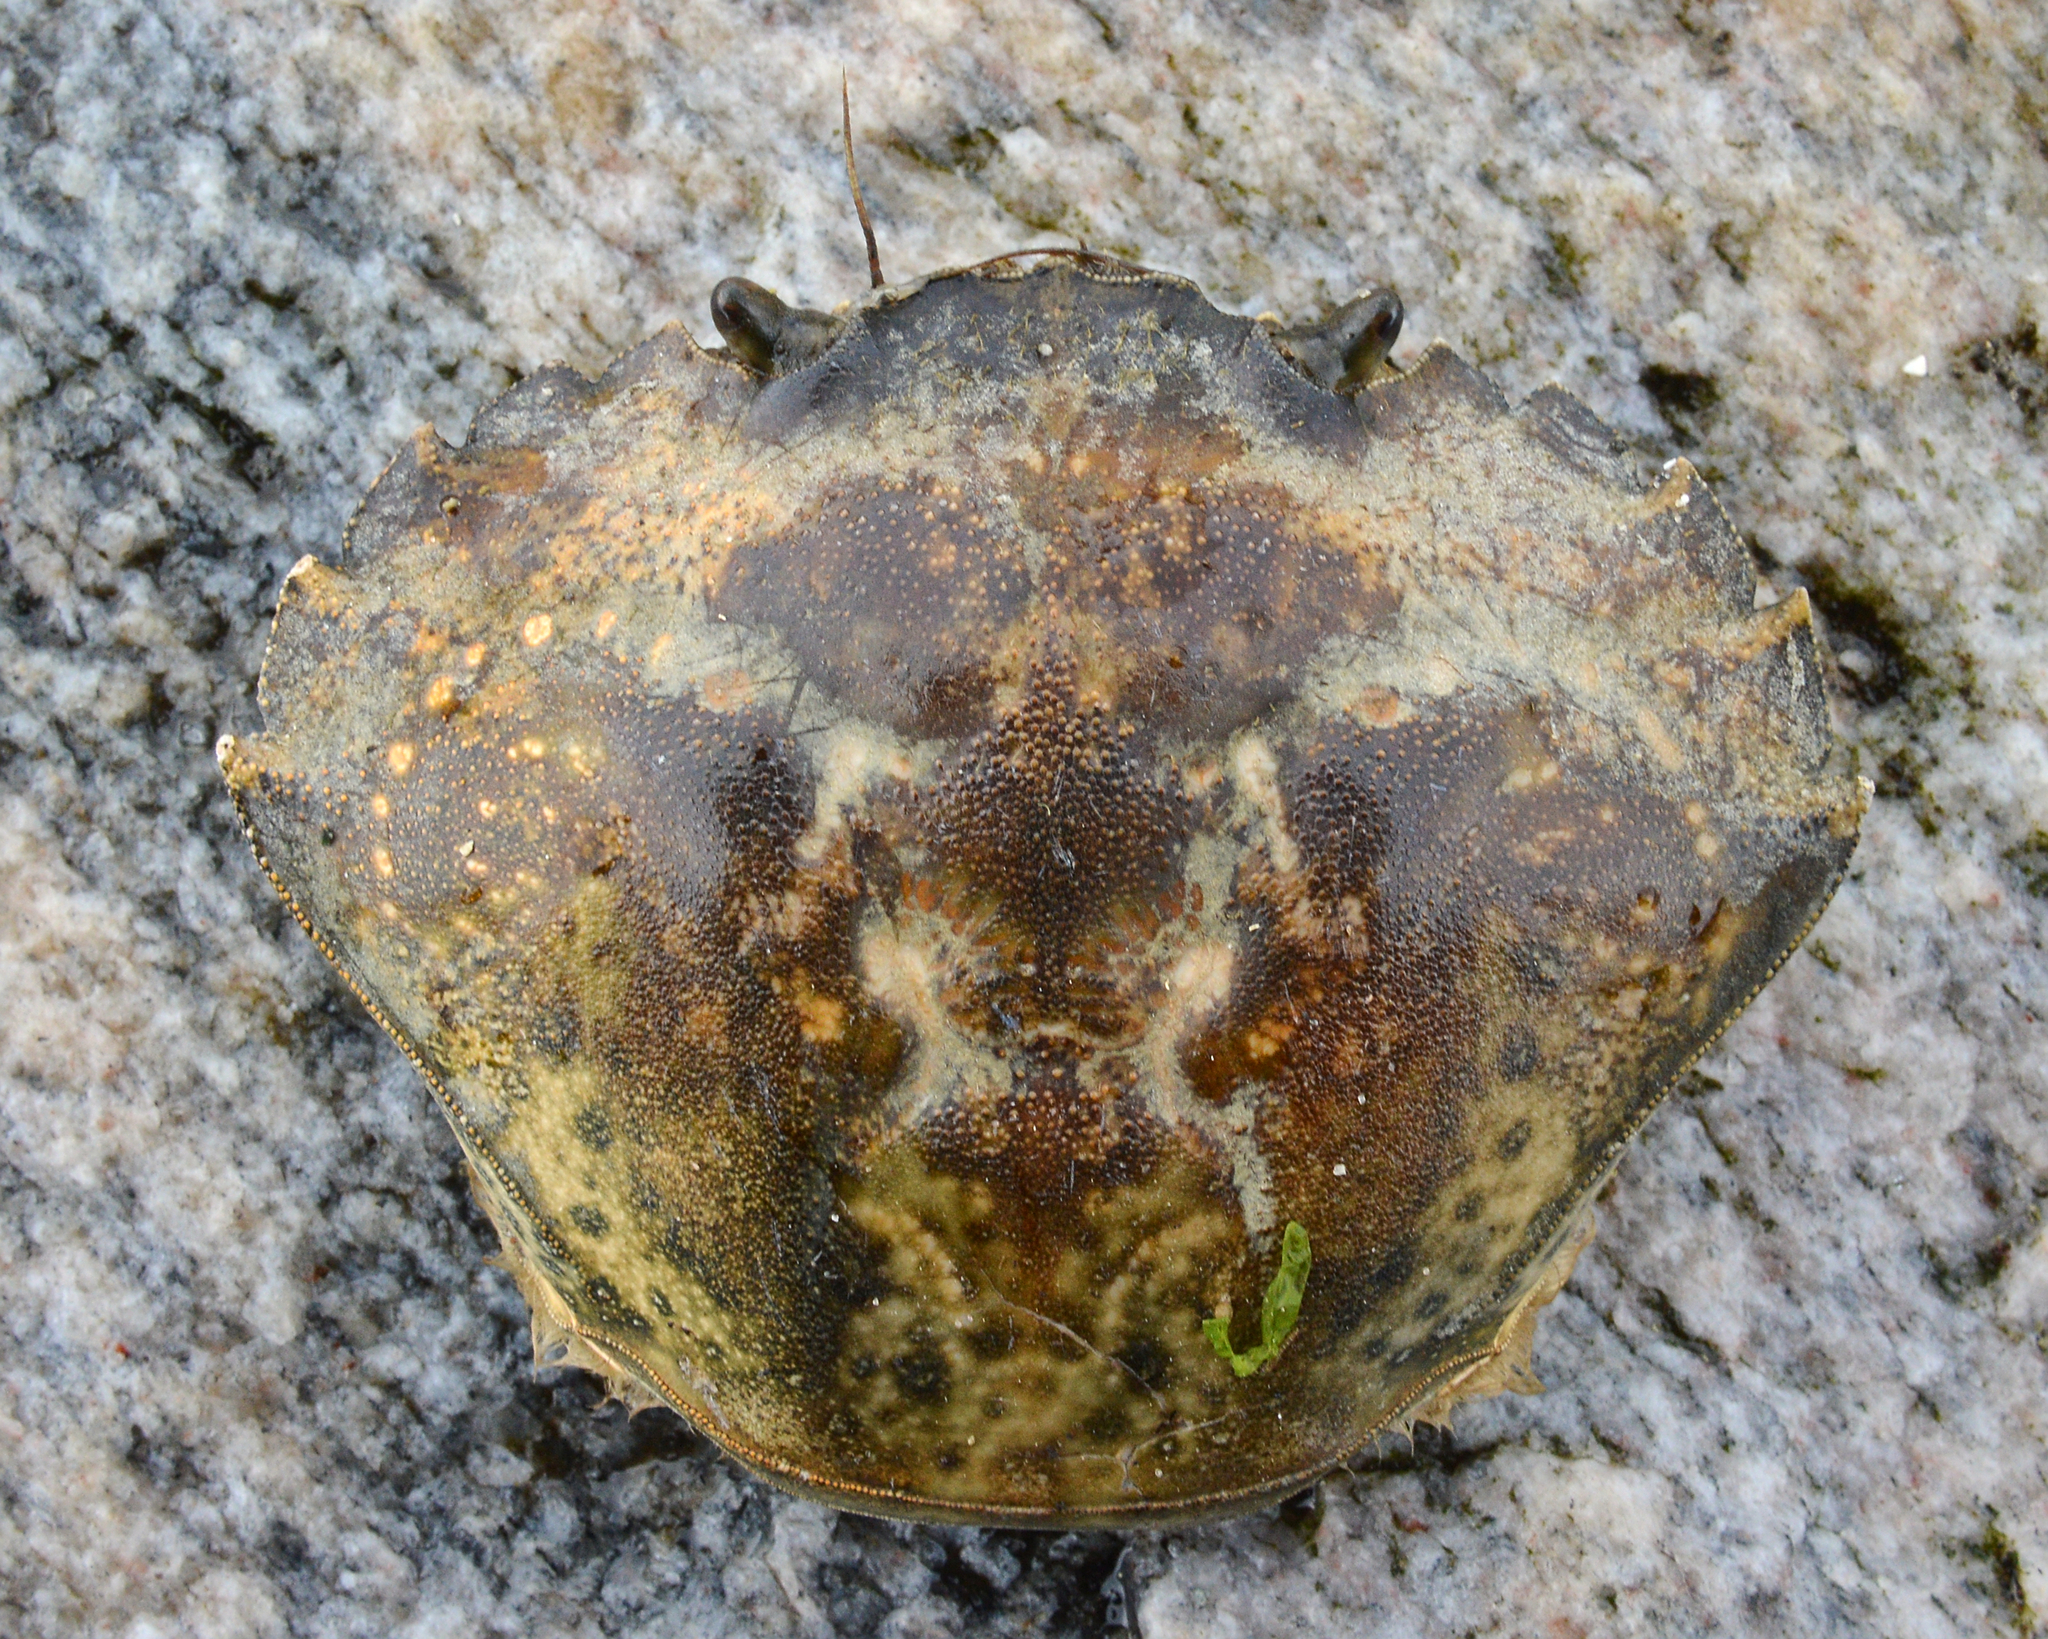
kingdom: Animalia
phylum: Arthropoda
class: Malacostraca
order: Decapoda
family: Carcinidae
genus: Carcinus
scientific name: Carcinus maenas
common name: European green crab
